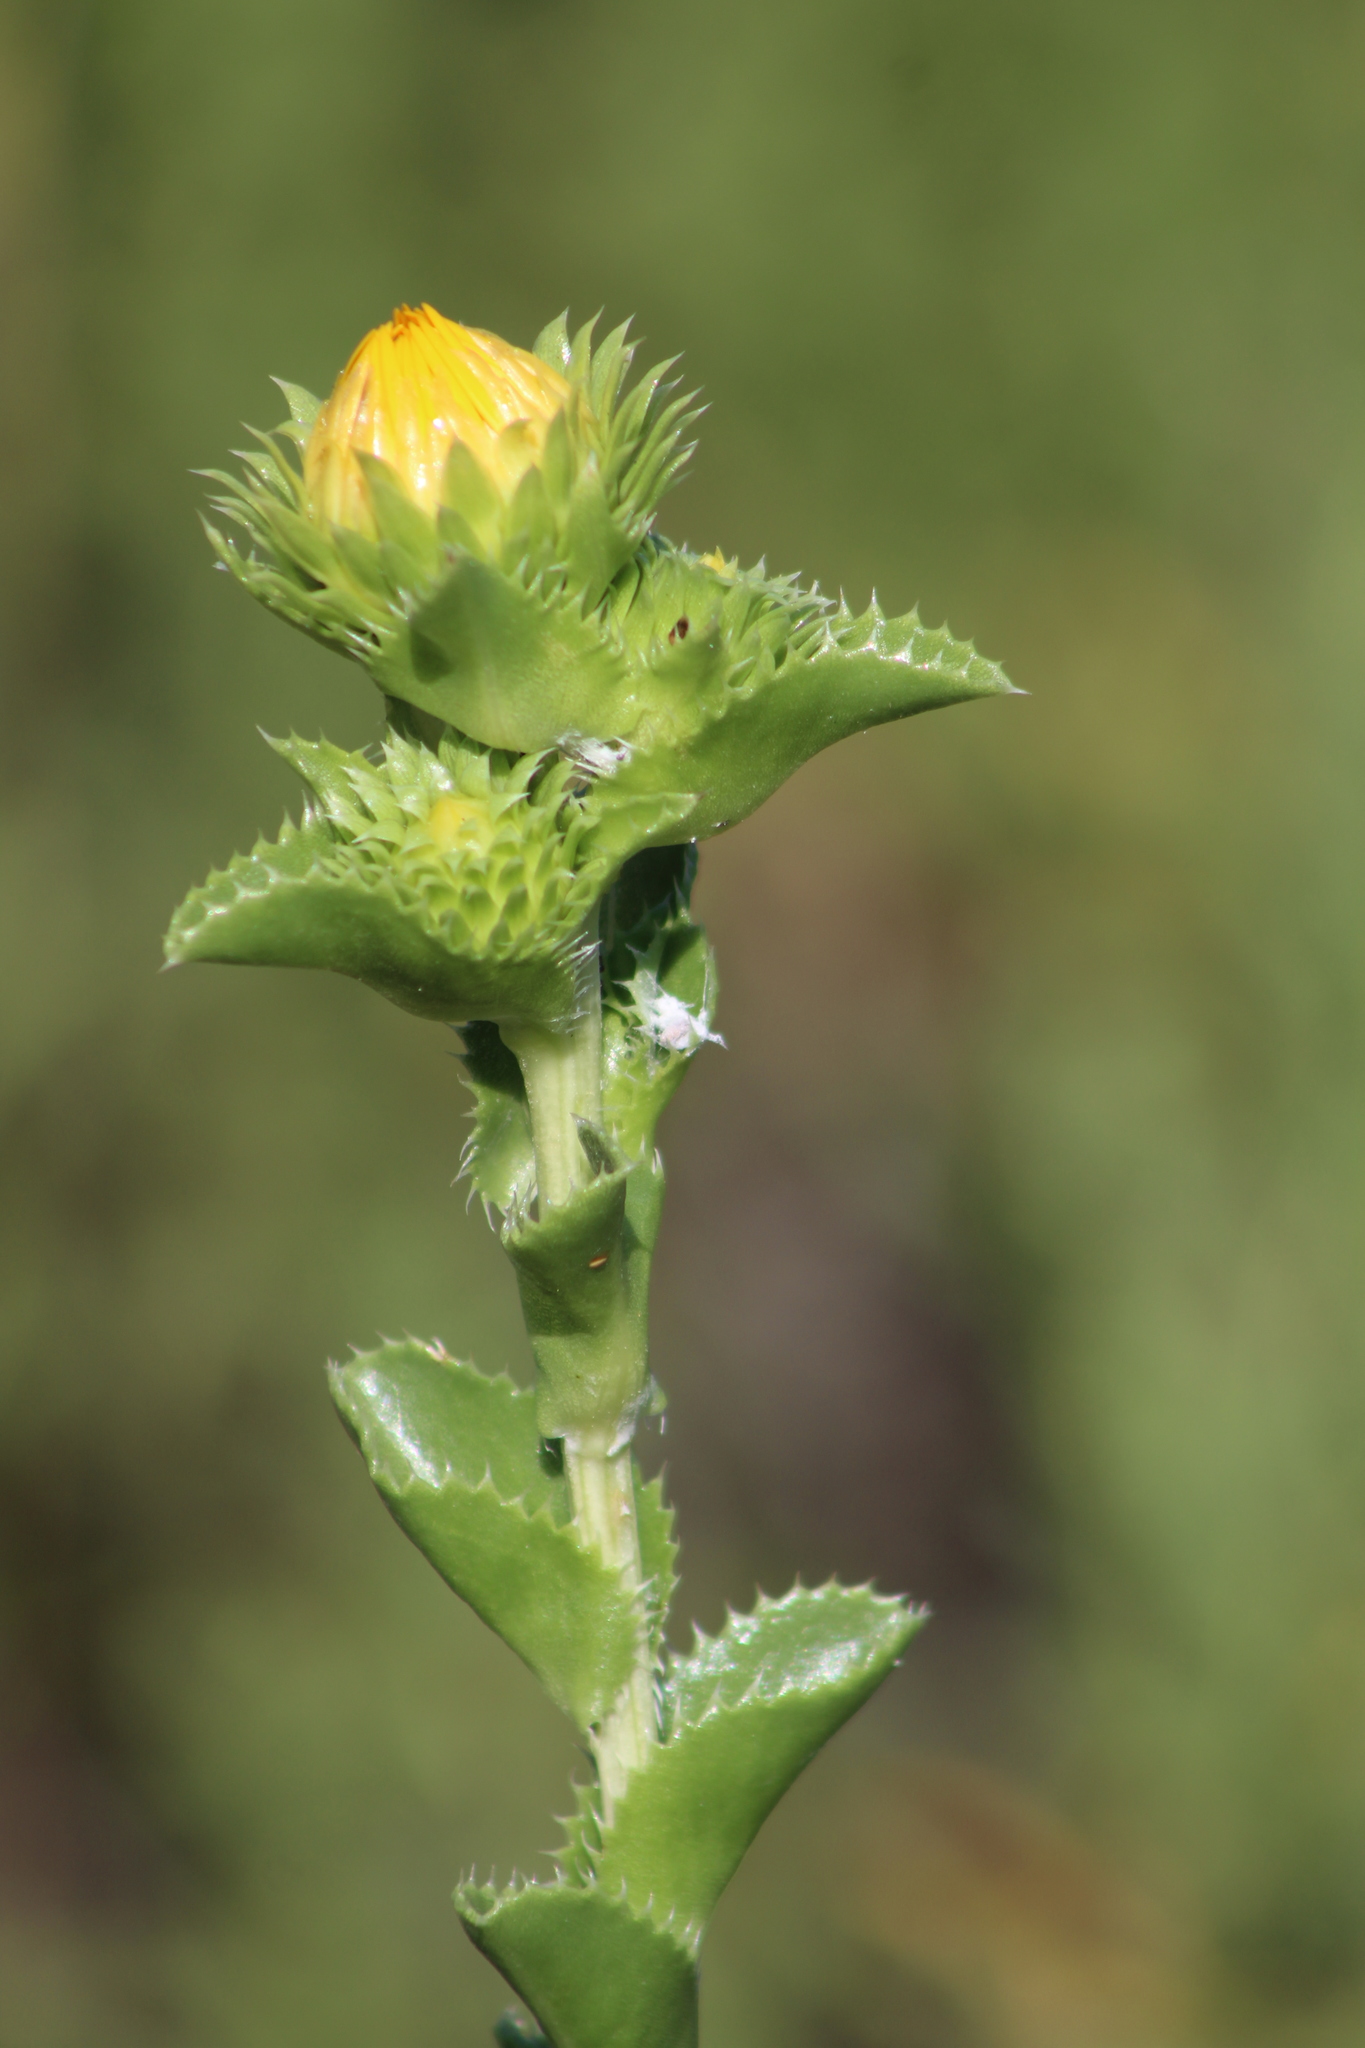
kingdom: Plantae
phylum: Tracheophyta
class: Magnoliopsida
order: Asterales
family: Asteraceae
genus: Grindelia
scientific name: Grindelia ciliata
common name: Goldenweed
